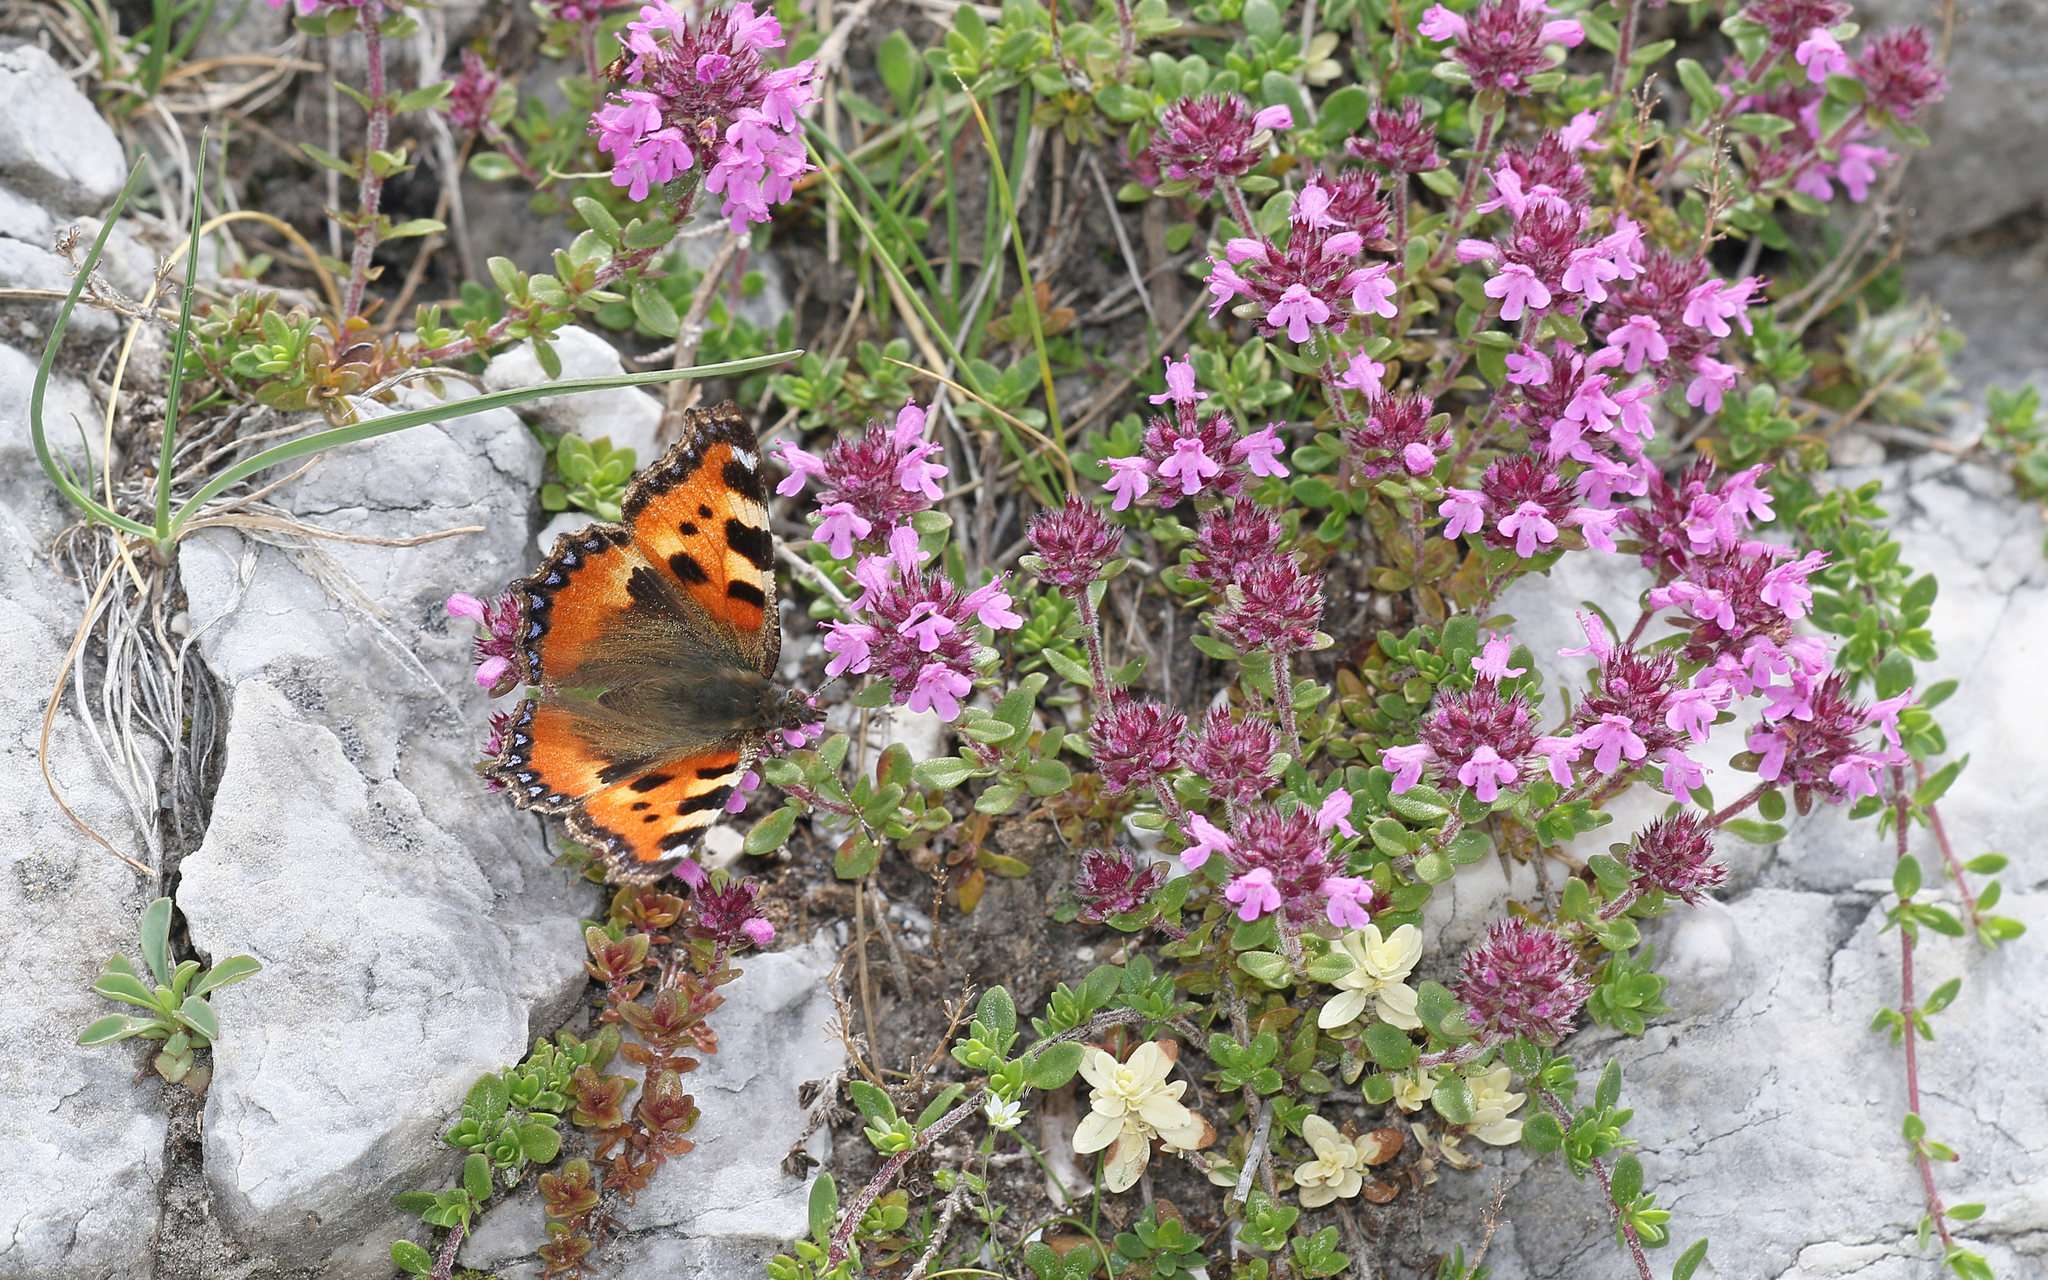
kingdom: Animalia
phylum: Arthropoda
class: Insecta
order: Lepidoptera
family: Nymphalidae
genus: Aglais
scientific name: Aglais urticae
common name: Small tortoiseshell
